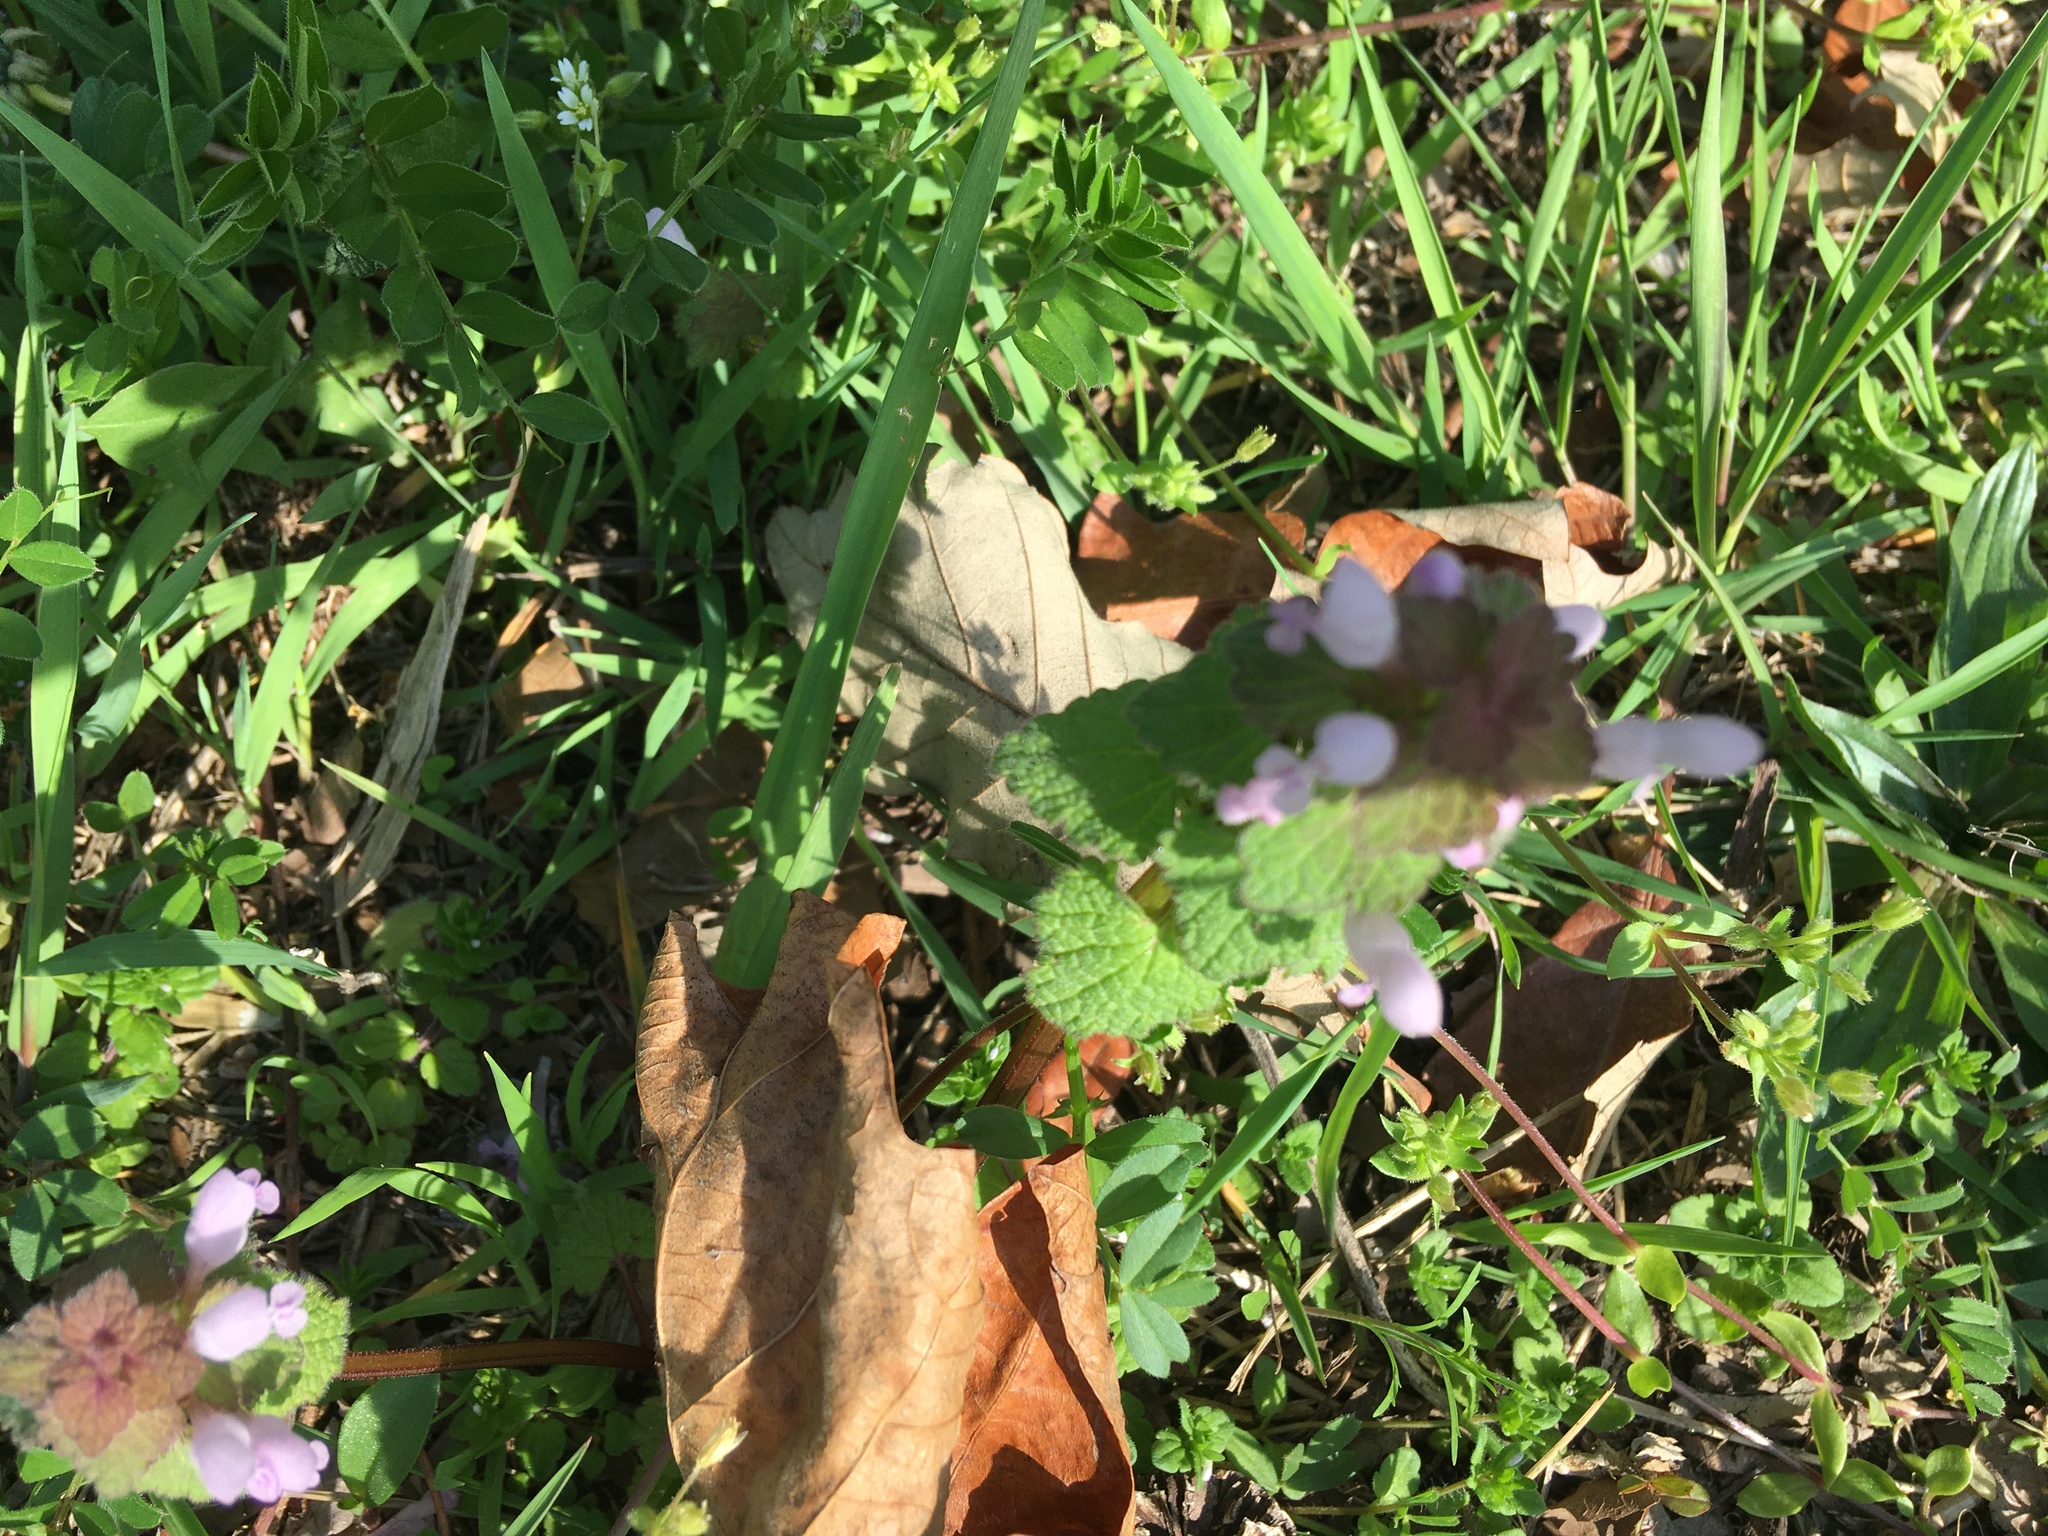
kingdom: Plantae
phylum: Tracheophyta
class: Magnoliopsida
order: Lamiales
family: Lamiaceae
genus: Lamium
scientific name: Lamium purpureum
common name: Red dead-nettle
